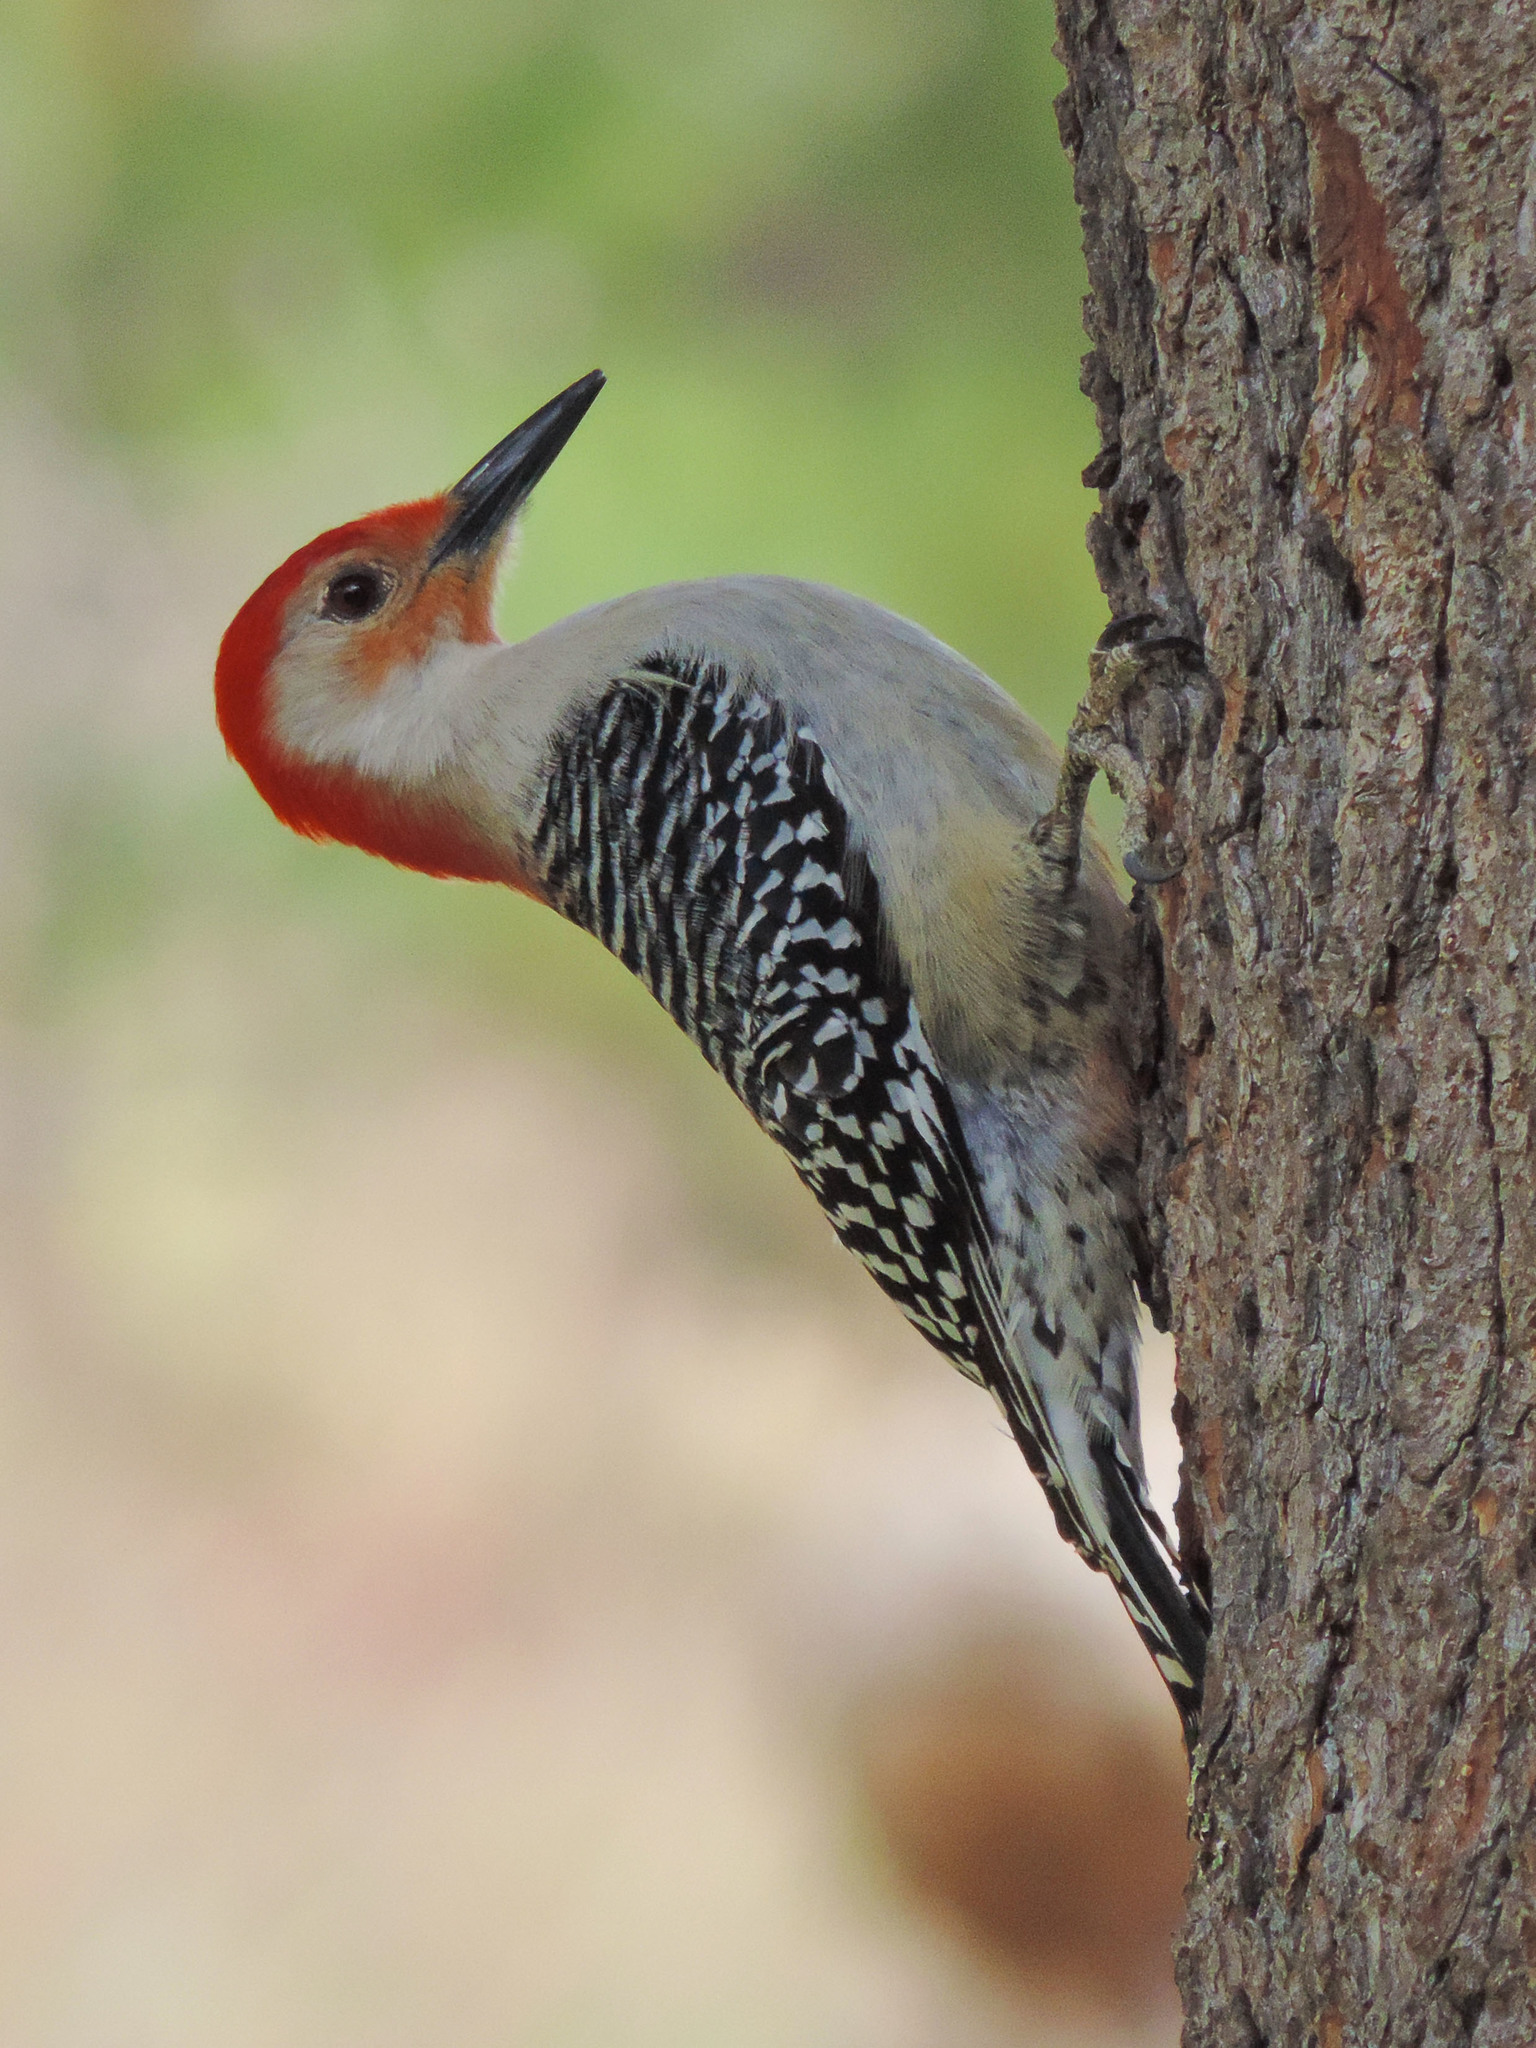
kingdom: Animalia
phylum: Chordata
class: Aves
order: Piciformes
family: Picidae
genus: Melanerpes
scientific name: Melanerpes carolinus
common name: Red-bellied woodpecker
